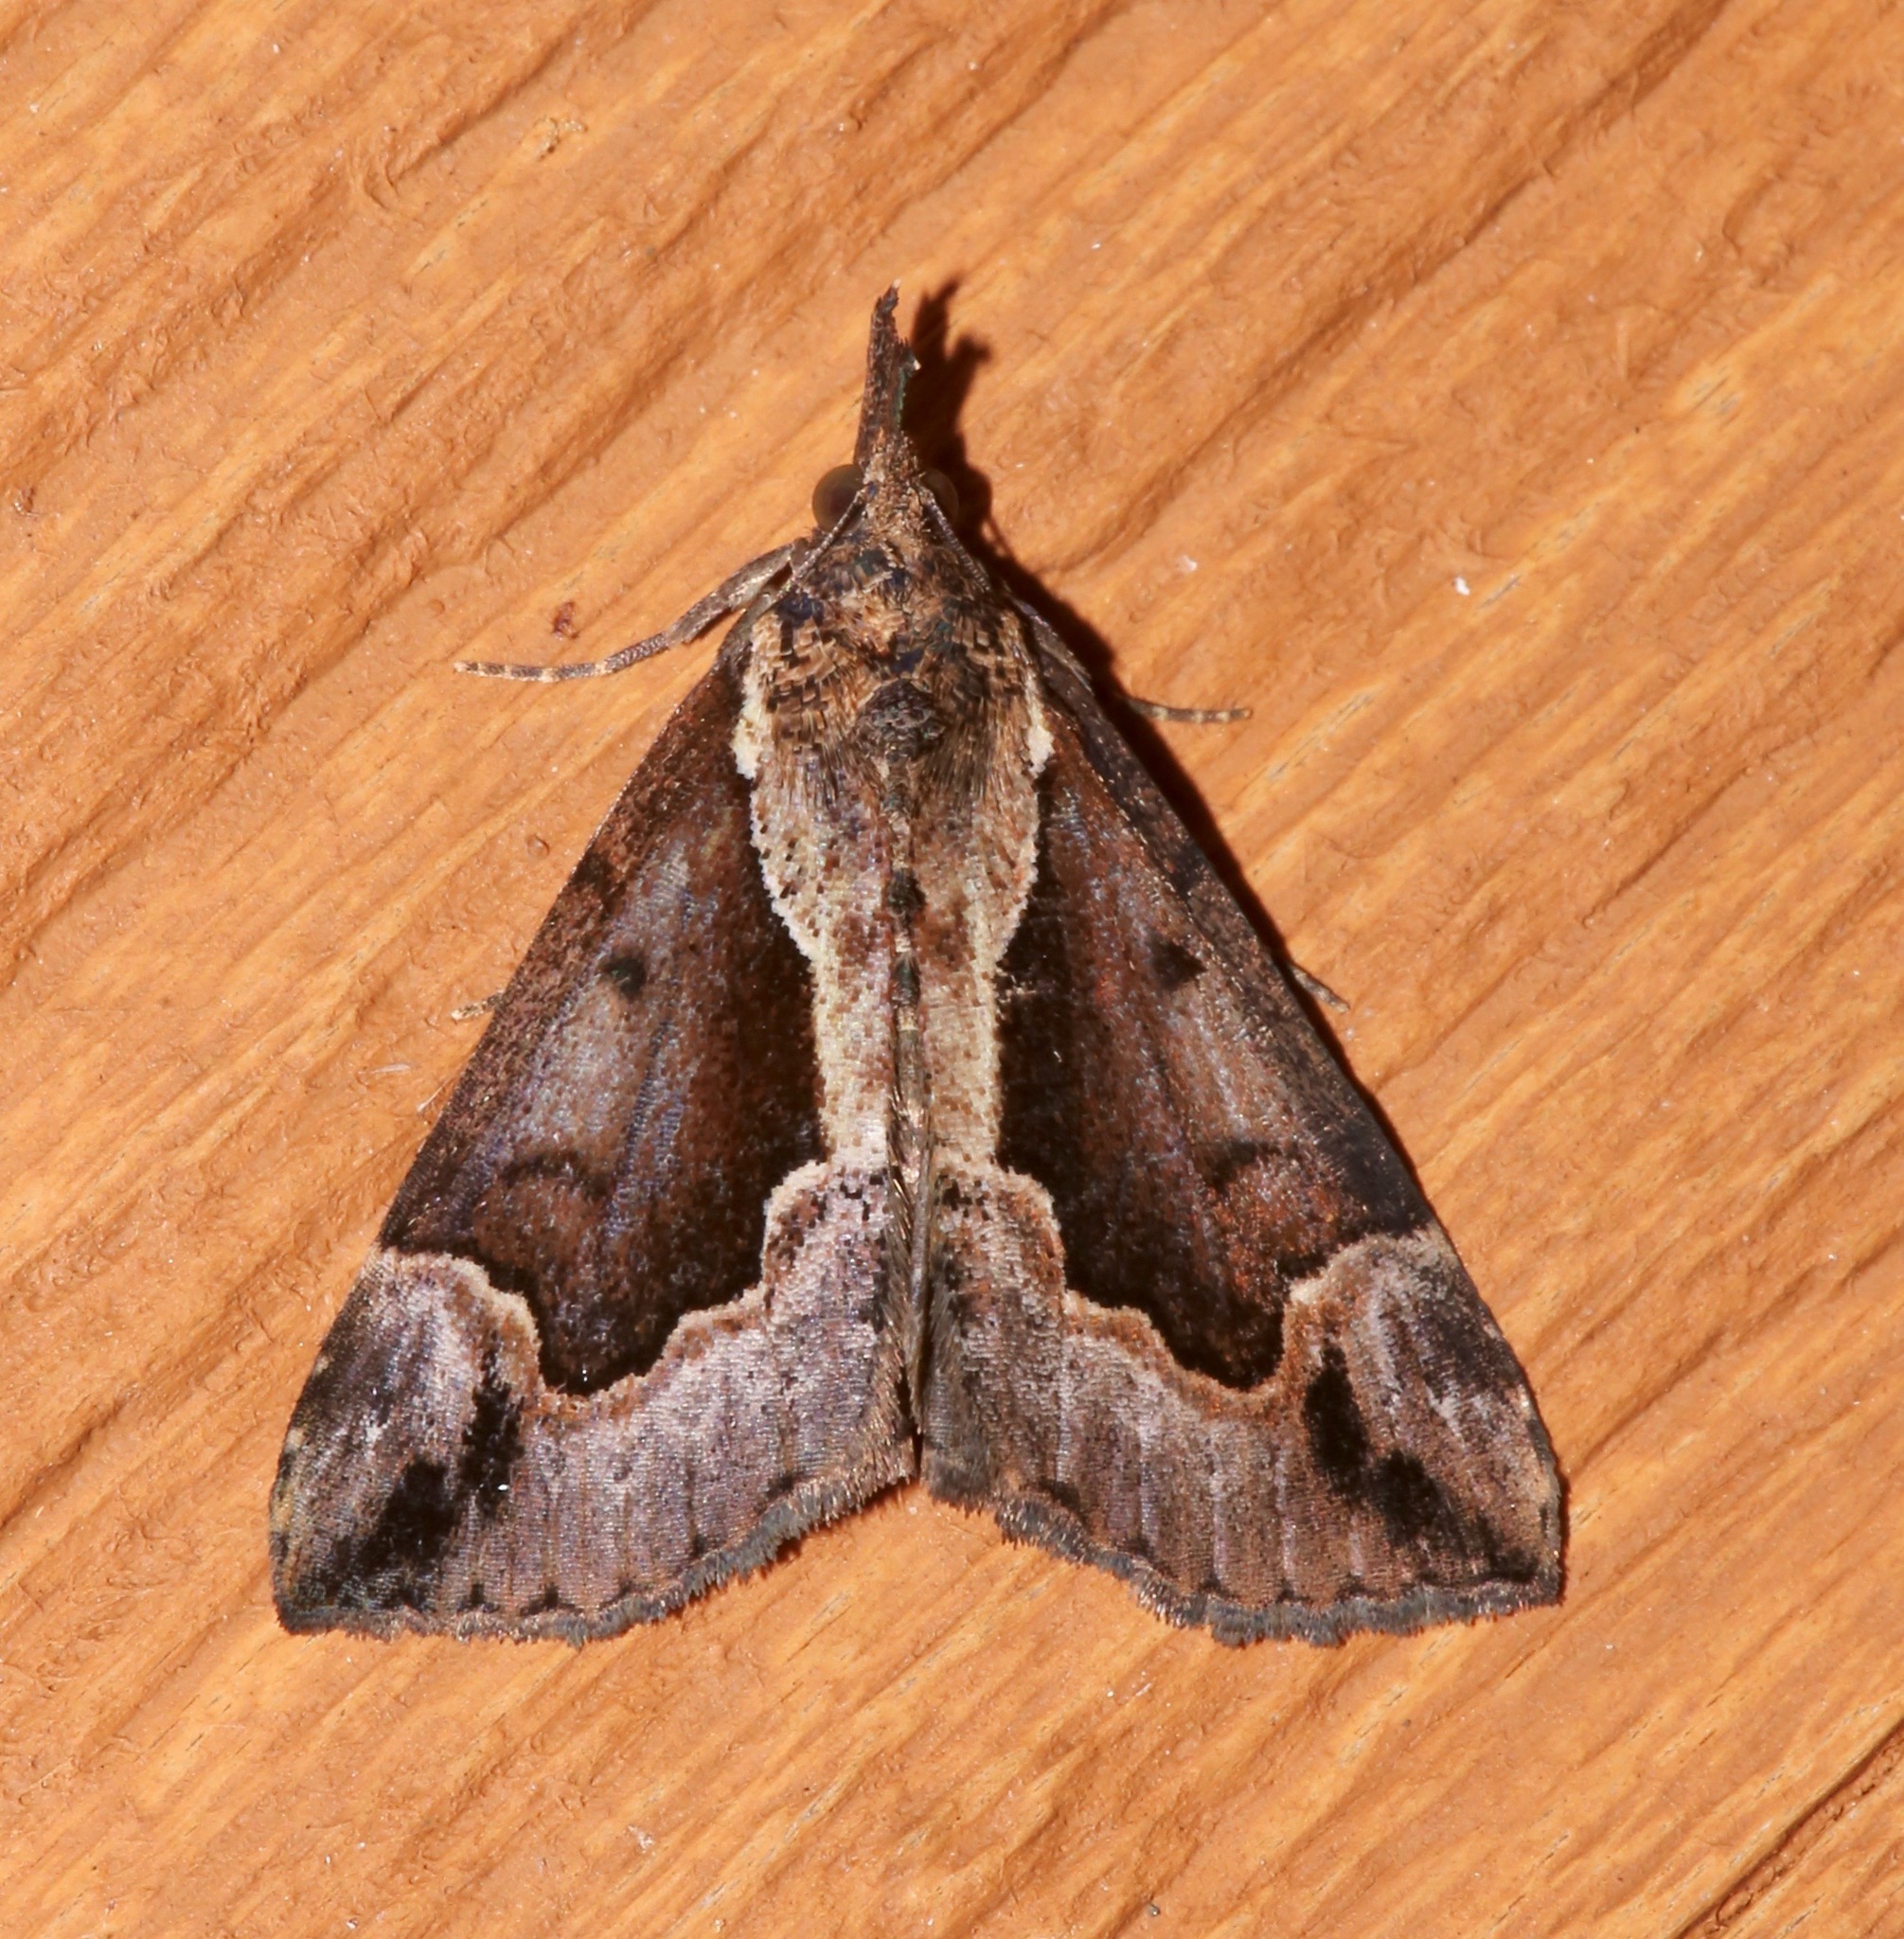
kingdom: Animalia
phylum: Arthropoda
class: Insecta
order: Lepidoptera
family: Erebidae
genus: Hypena
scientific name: Hypena baltimoralis
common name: Baltimore snout
